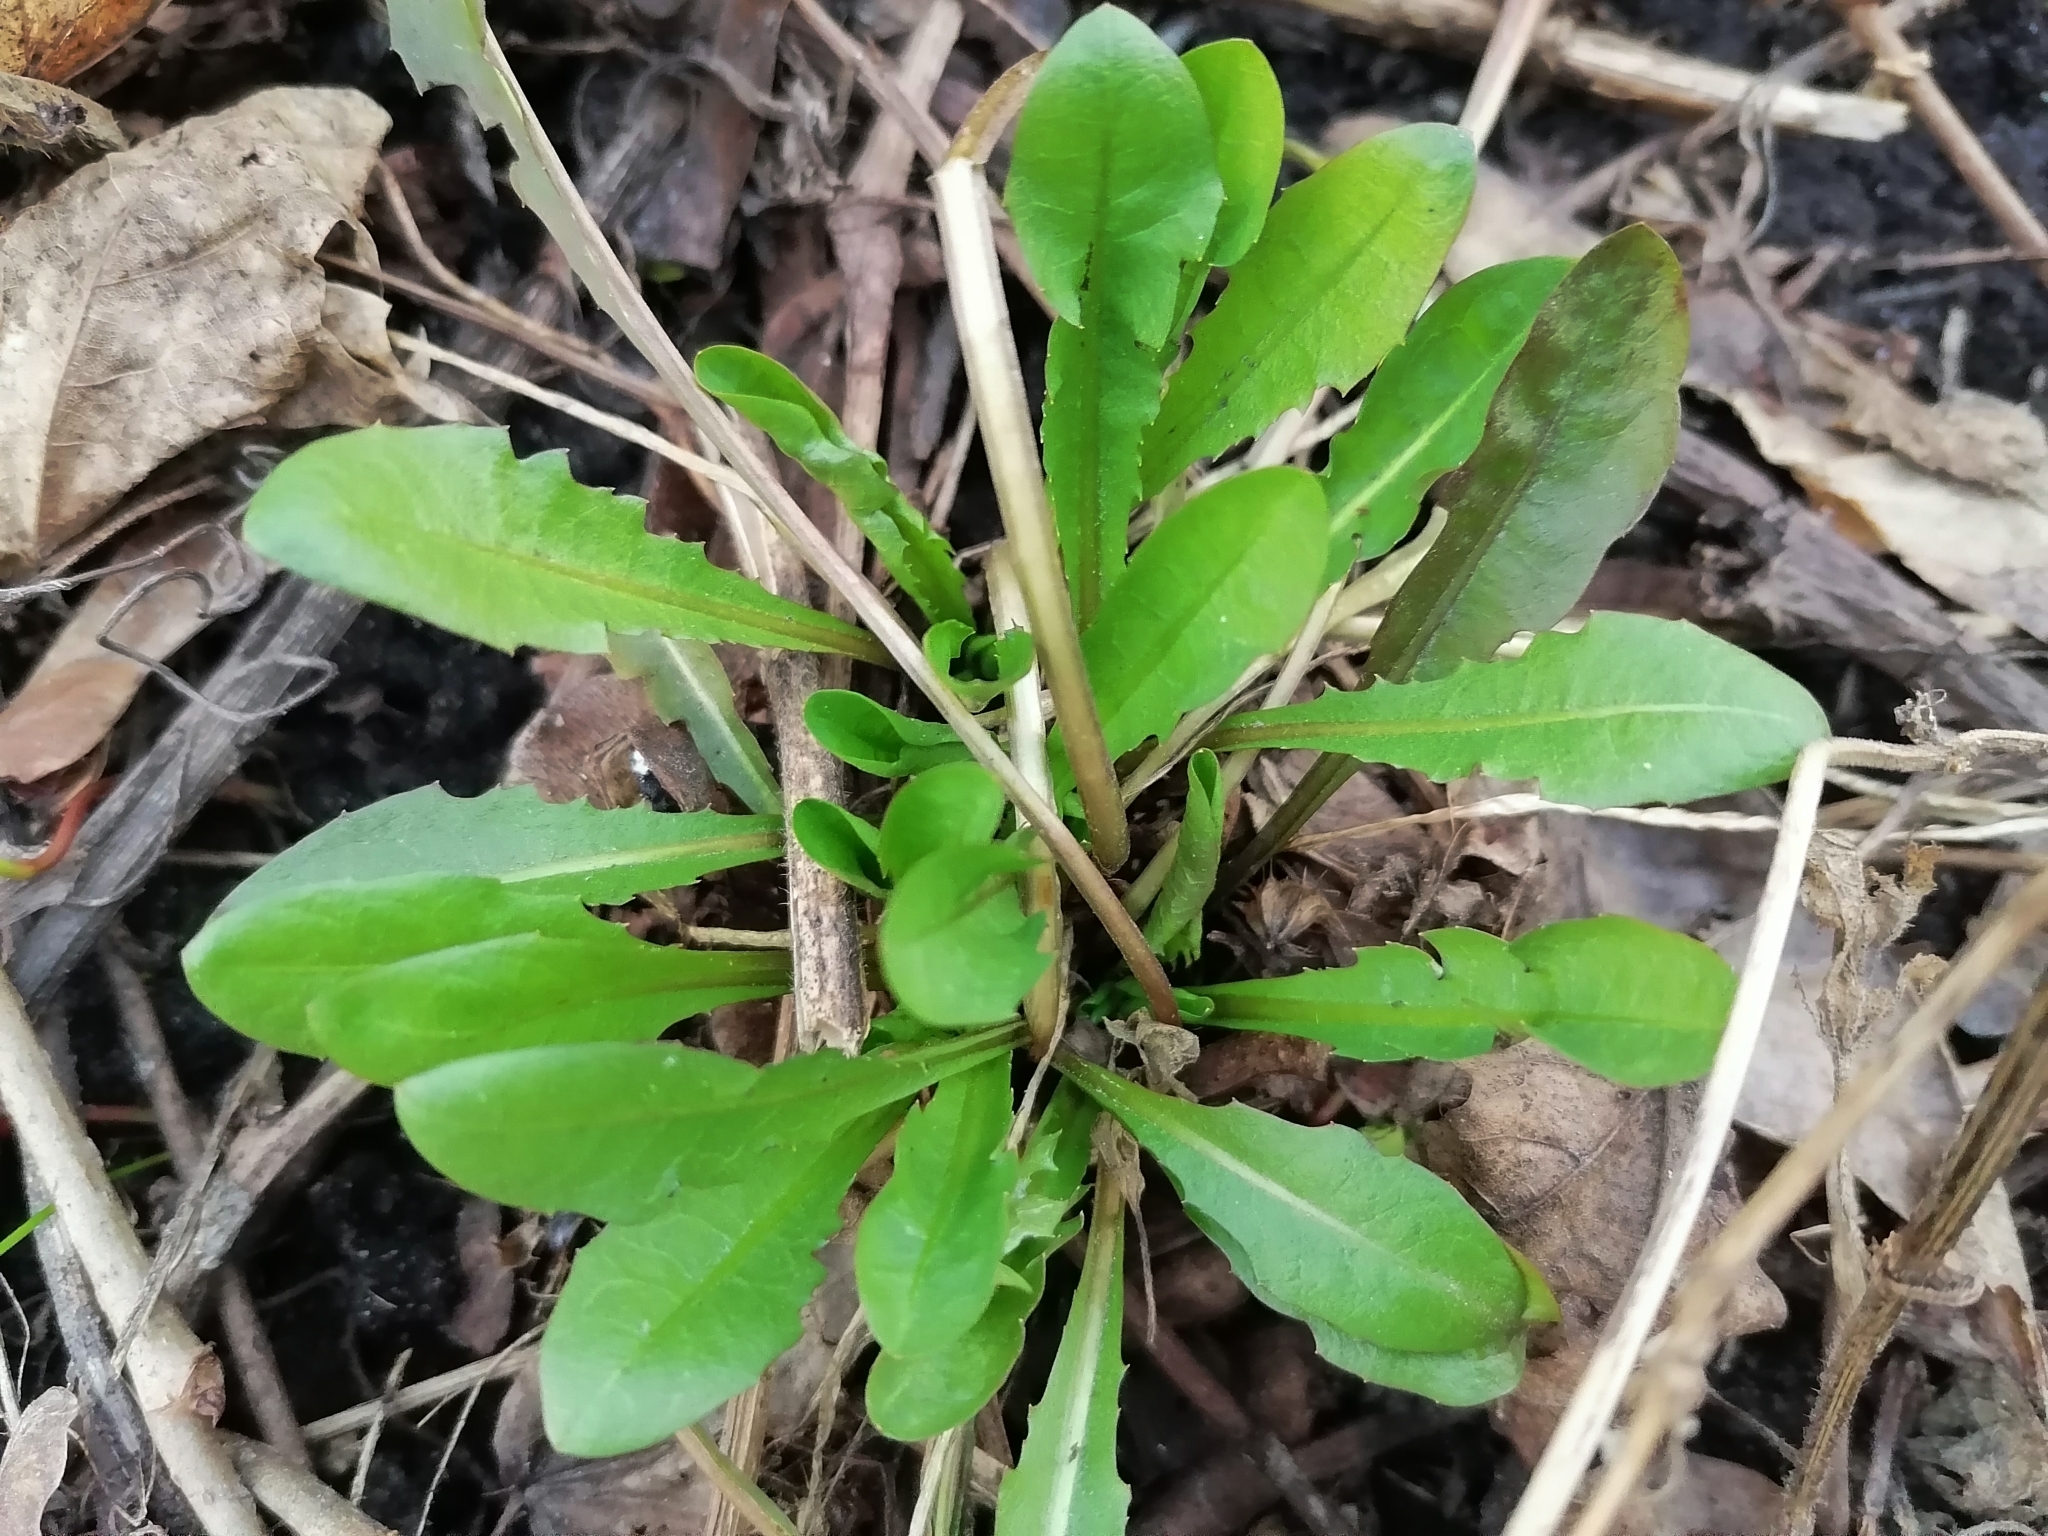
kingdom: Plantae
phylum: Tracheophyta
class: Magnoliopsida
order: Asterales
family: Asteraceae
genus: Taraxacum
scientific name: Taraxacum officinale
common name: Common dandelion
